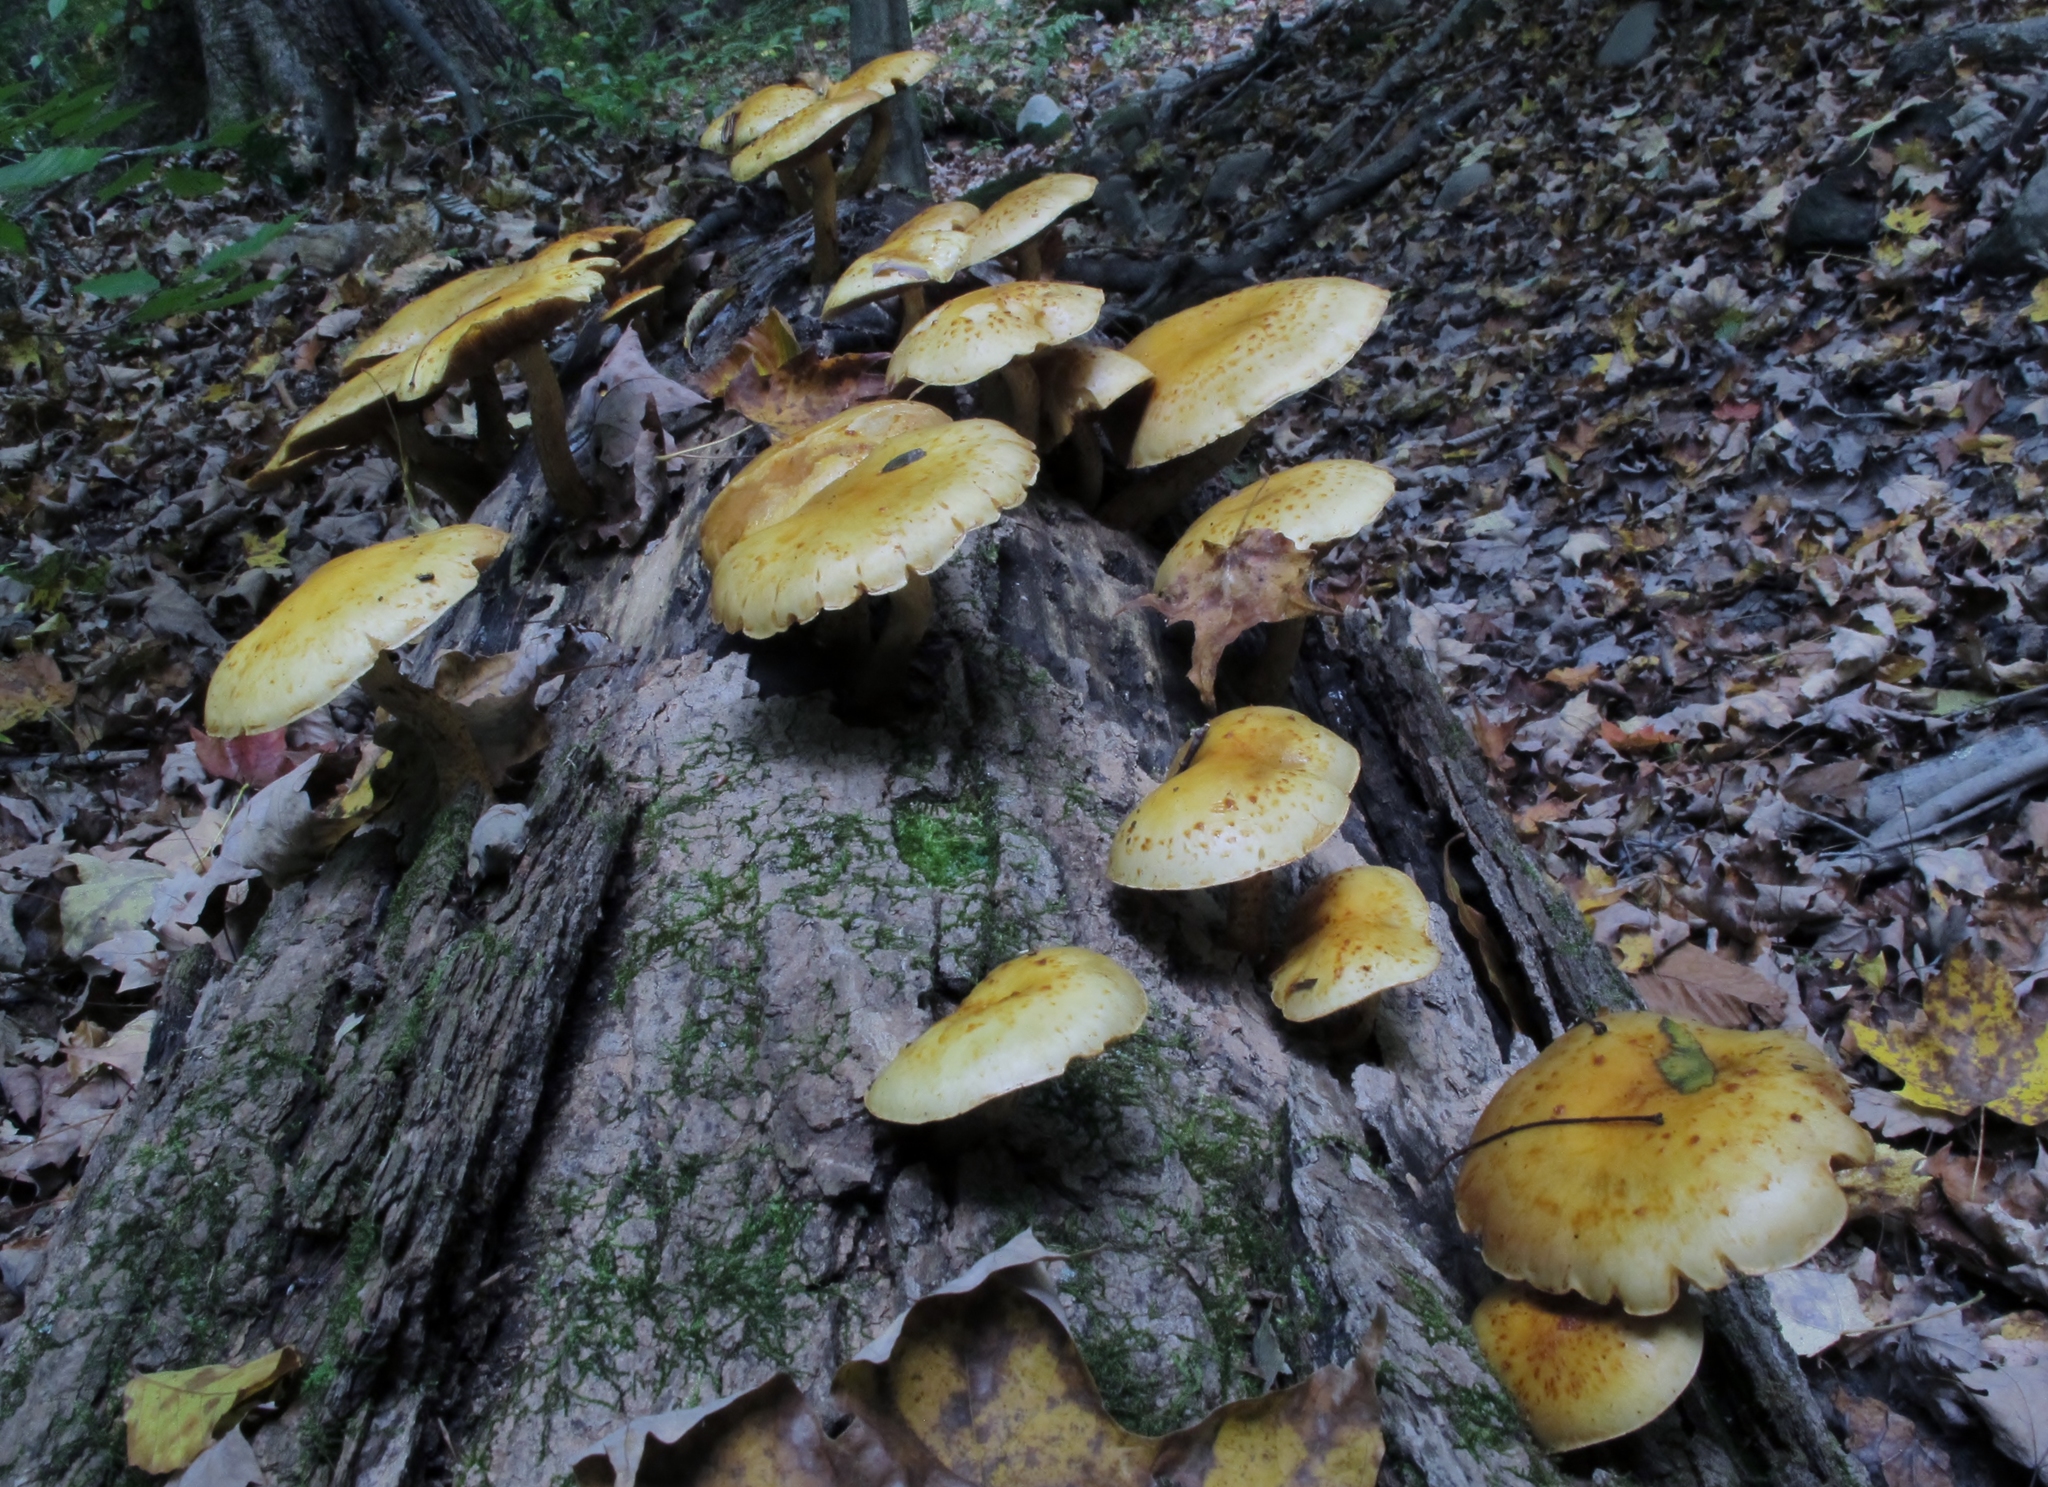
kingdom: Fungi
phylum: Basidiomycota
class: Agaricomycetes
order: Agaricales
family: Strophariaceae
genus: Pholiota
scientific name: Pholiota aurivella
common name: Golden scalycap
